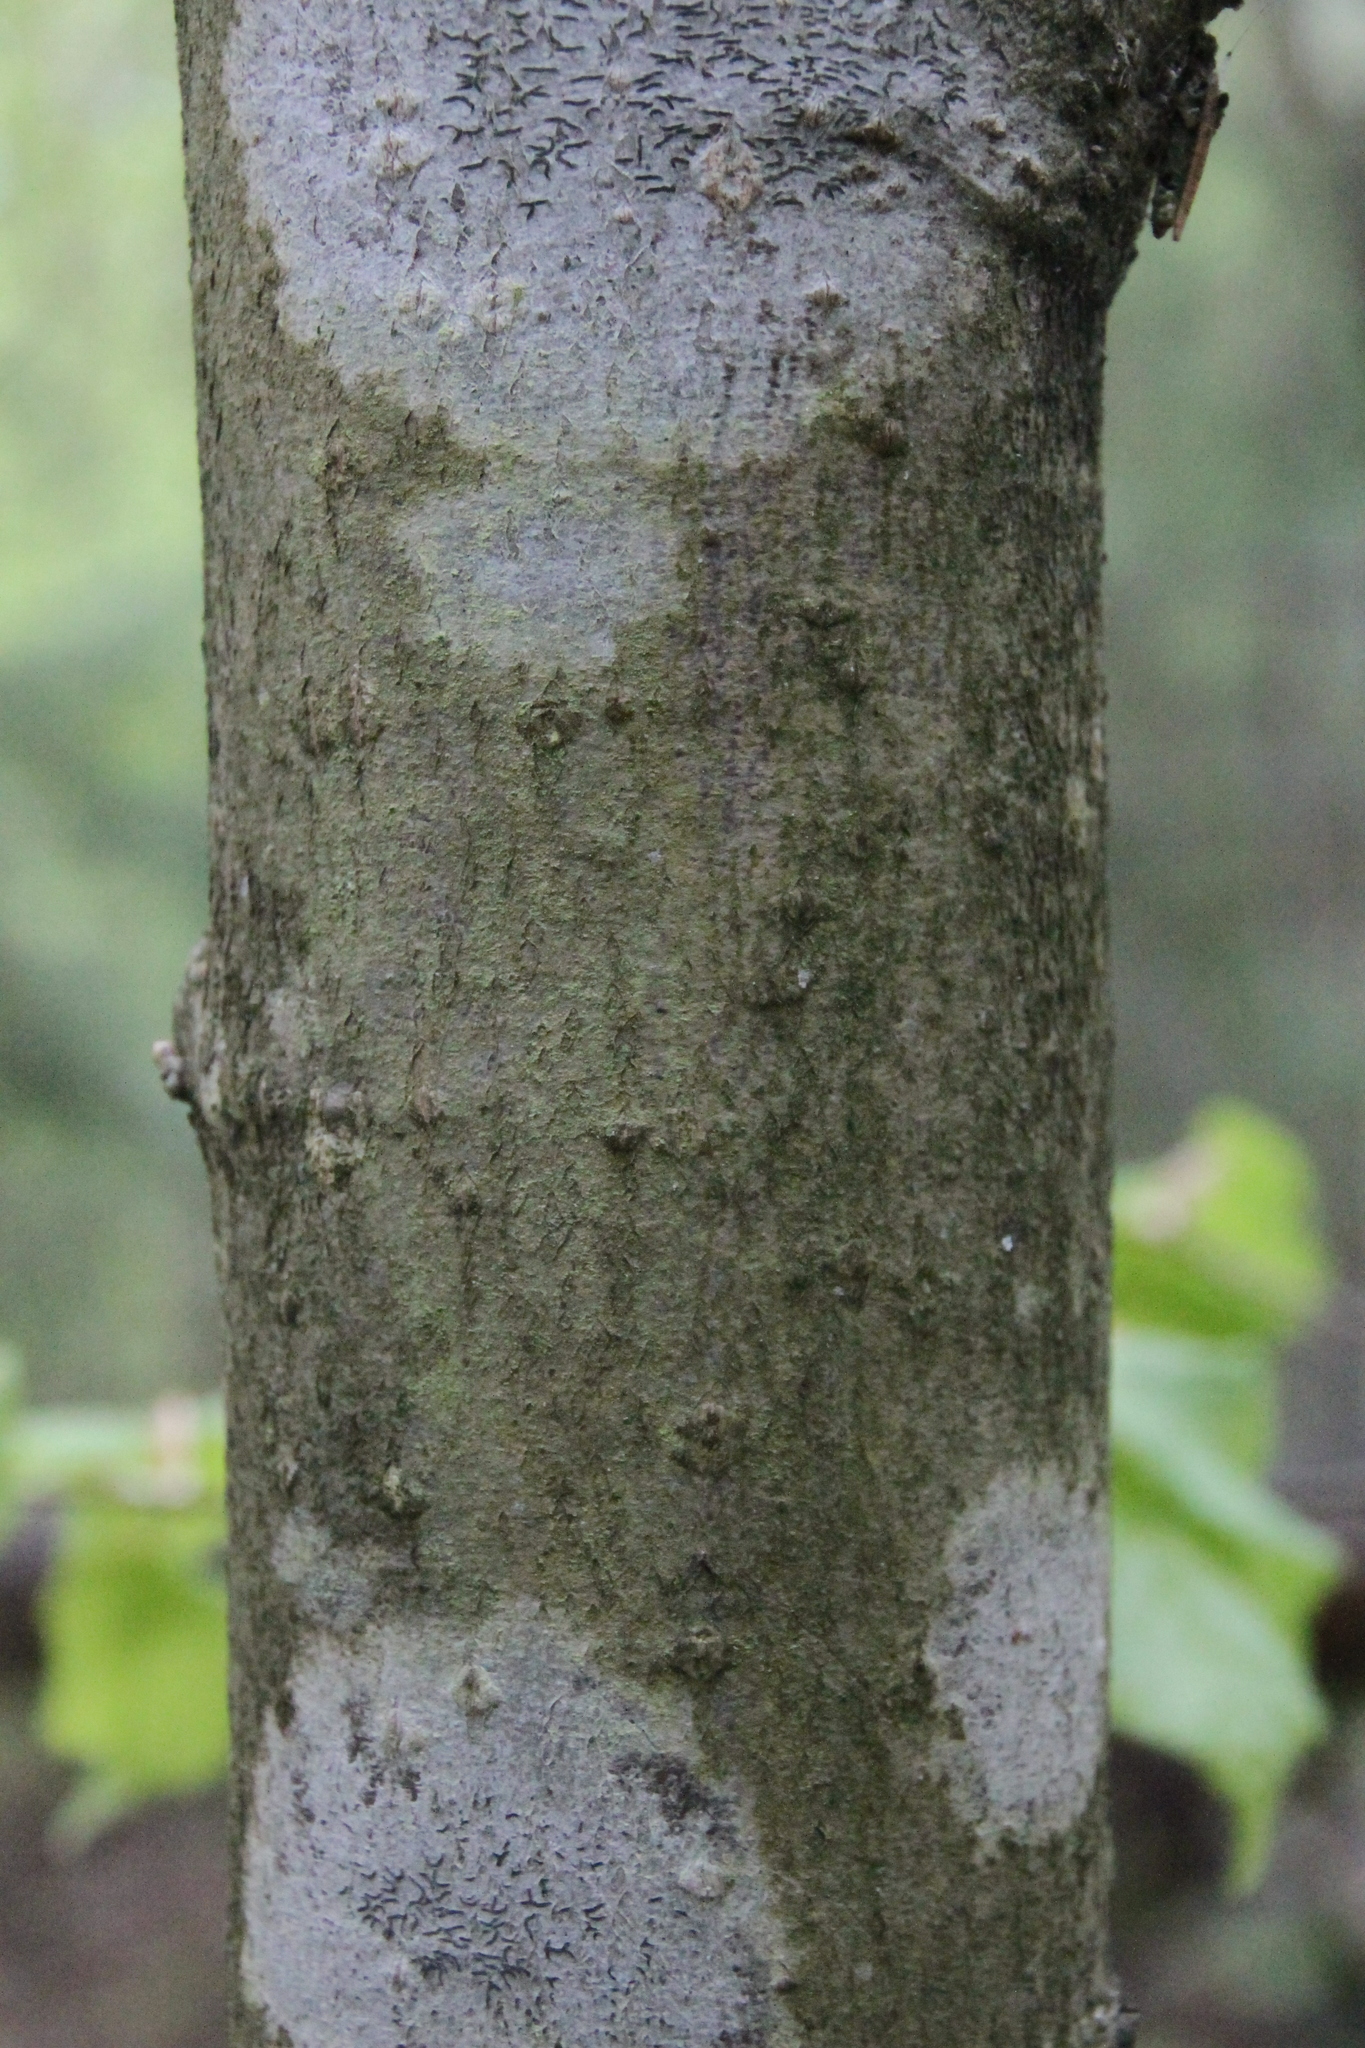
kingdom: Plantae
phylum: Tracheophyta
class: Magnoliopsida
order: Malvales
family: Malvaceae
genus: Tilia
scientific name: Tilia cordata
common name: Small-leaved lime
